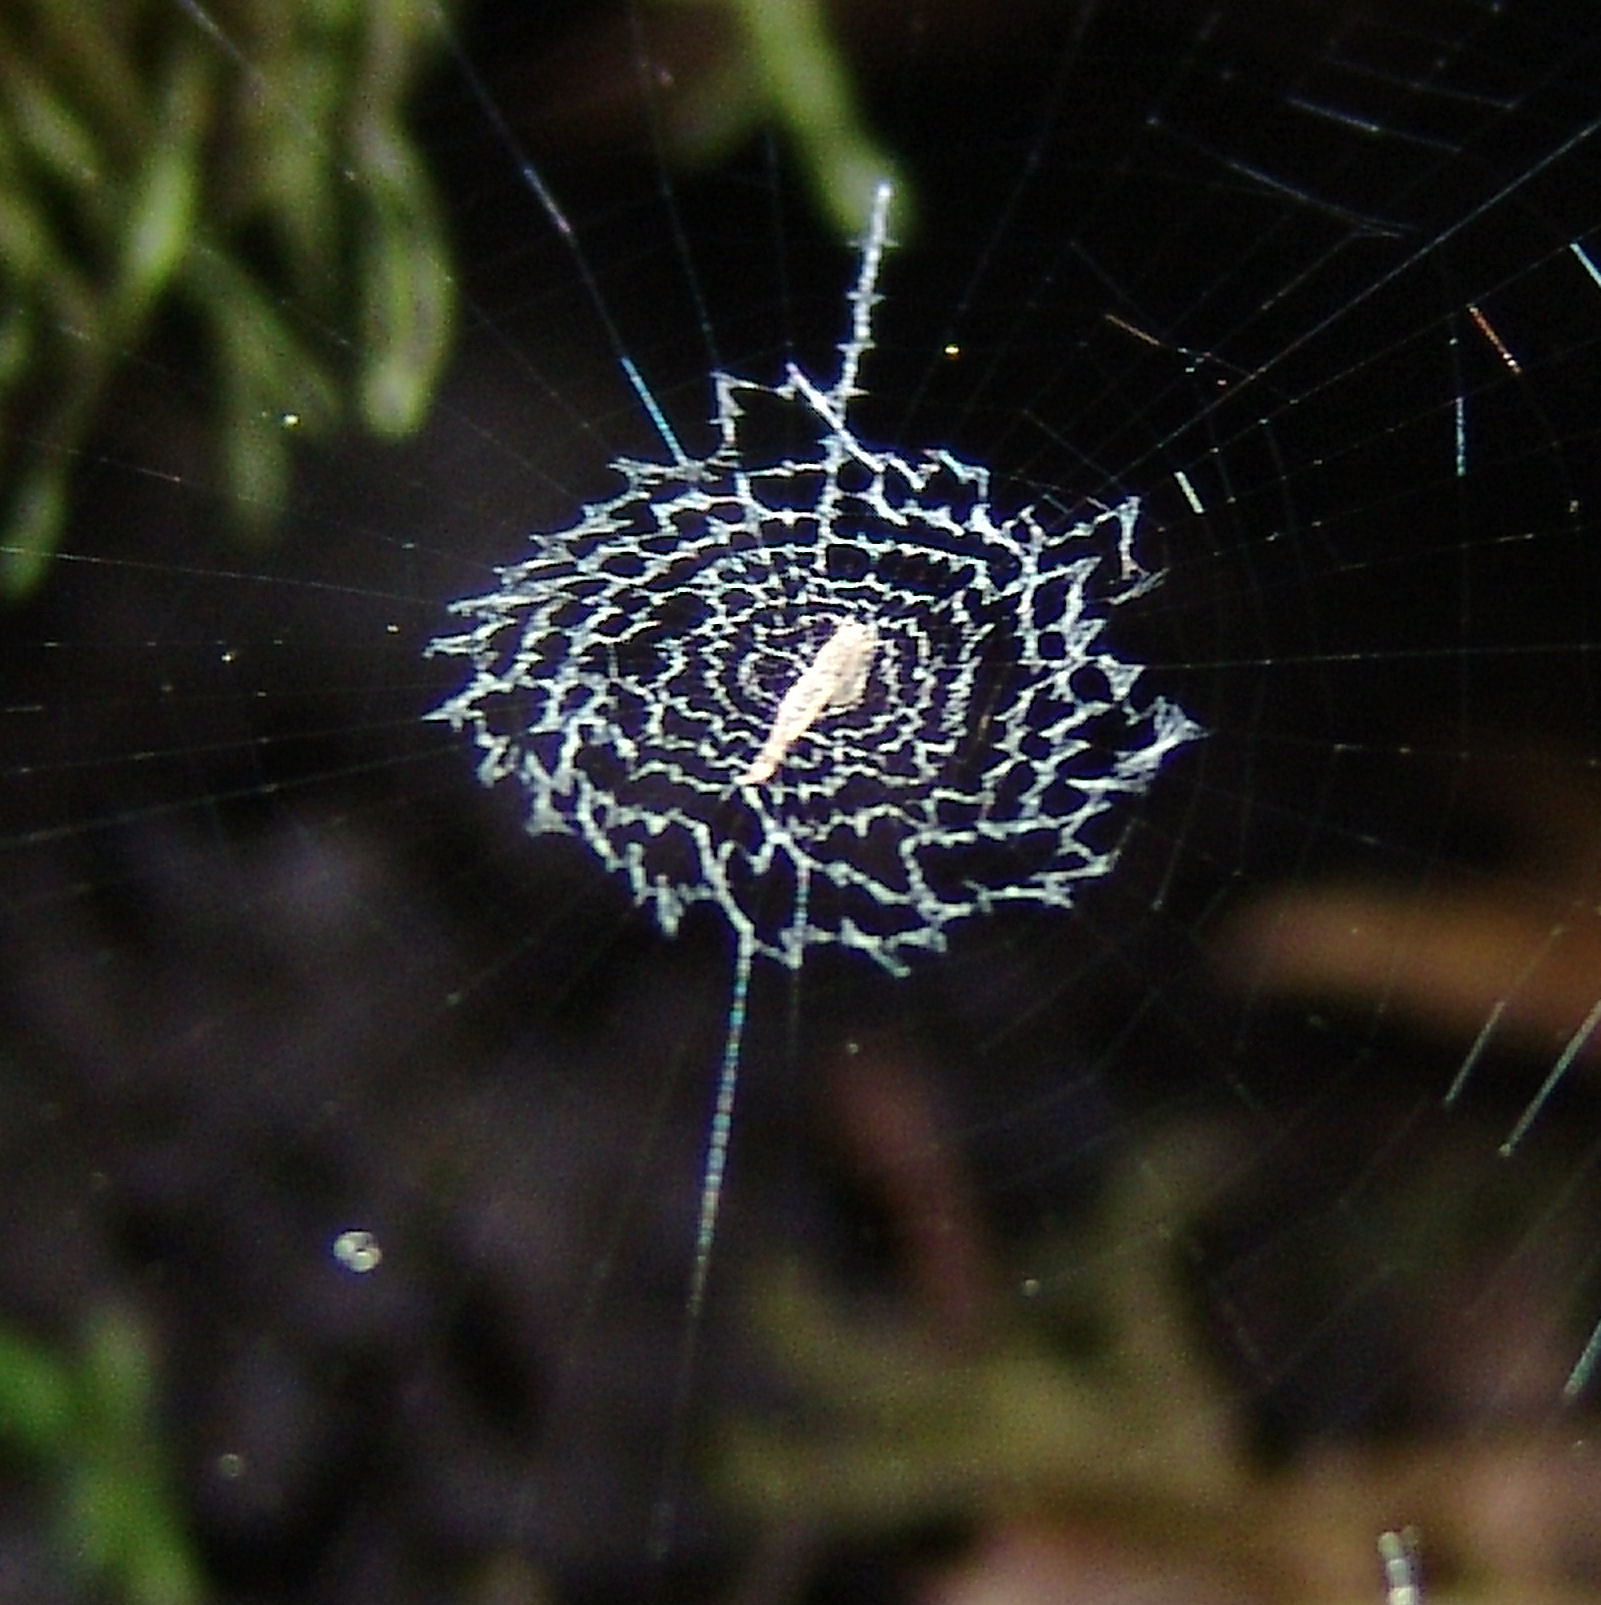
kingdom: Animalia
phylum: Arthropoda
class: Arachnida
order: Araneae
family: Uloboridae
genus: Uloborus
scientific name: Uloborus glomosus
